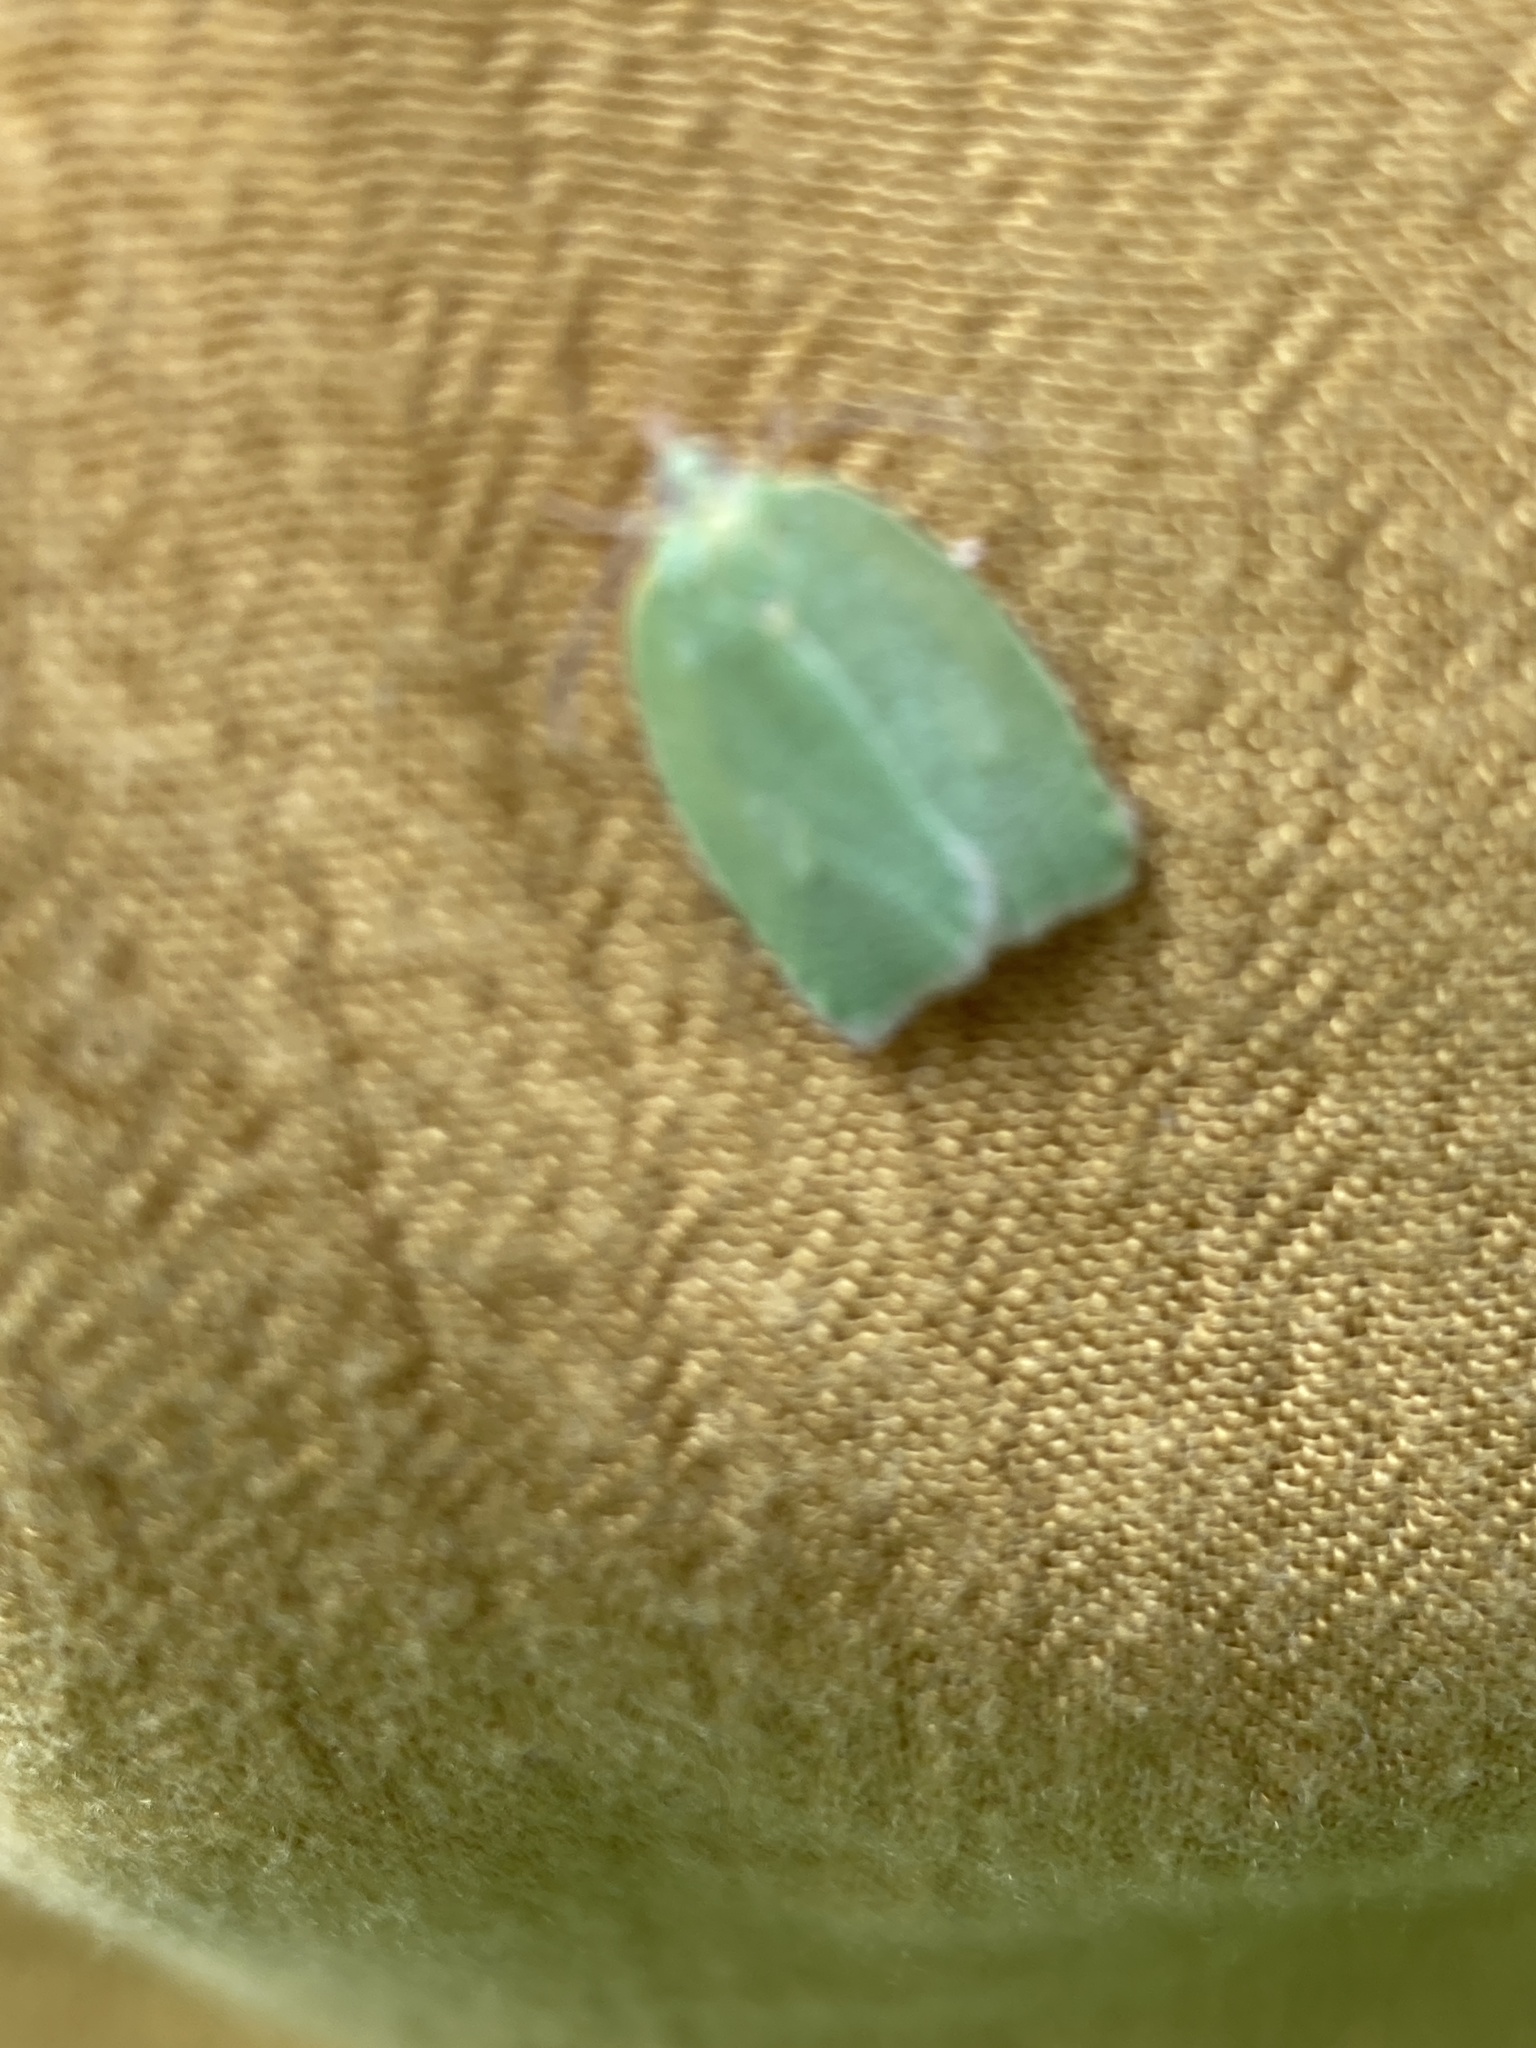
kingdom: Animalia
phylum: Arthropoda
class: Insecta
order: Lepidoptera
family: Tortricidae
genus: Tortrix
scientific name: Tortrix viridana
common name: Green oak tortrix
